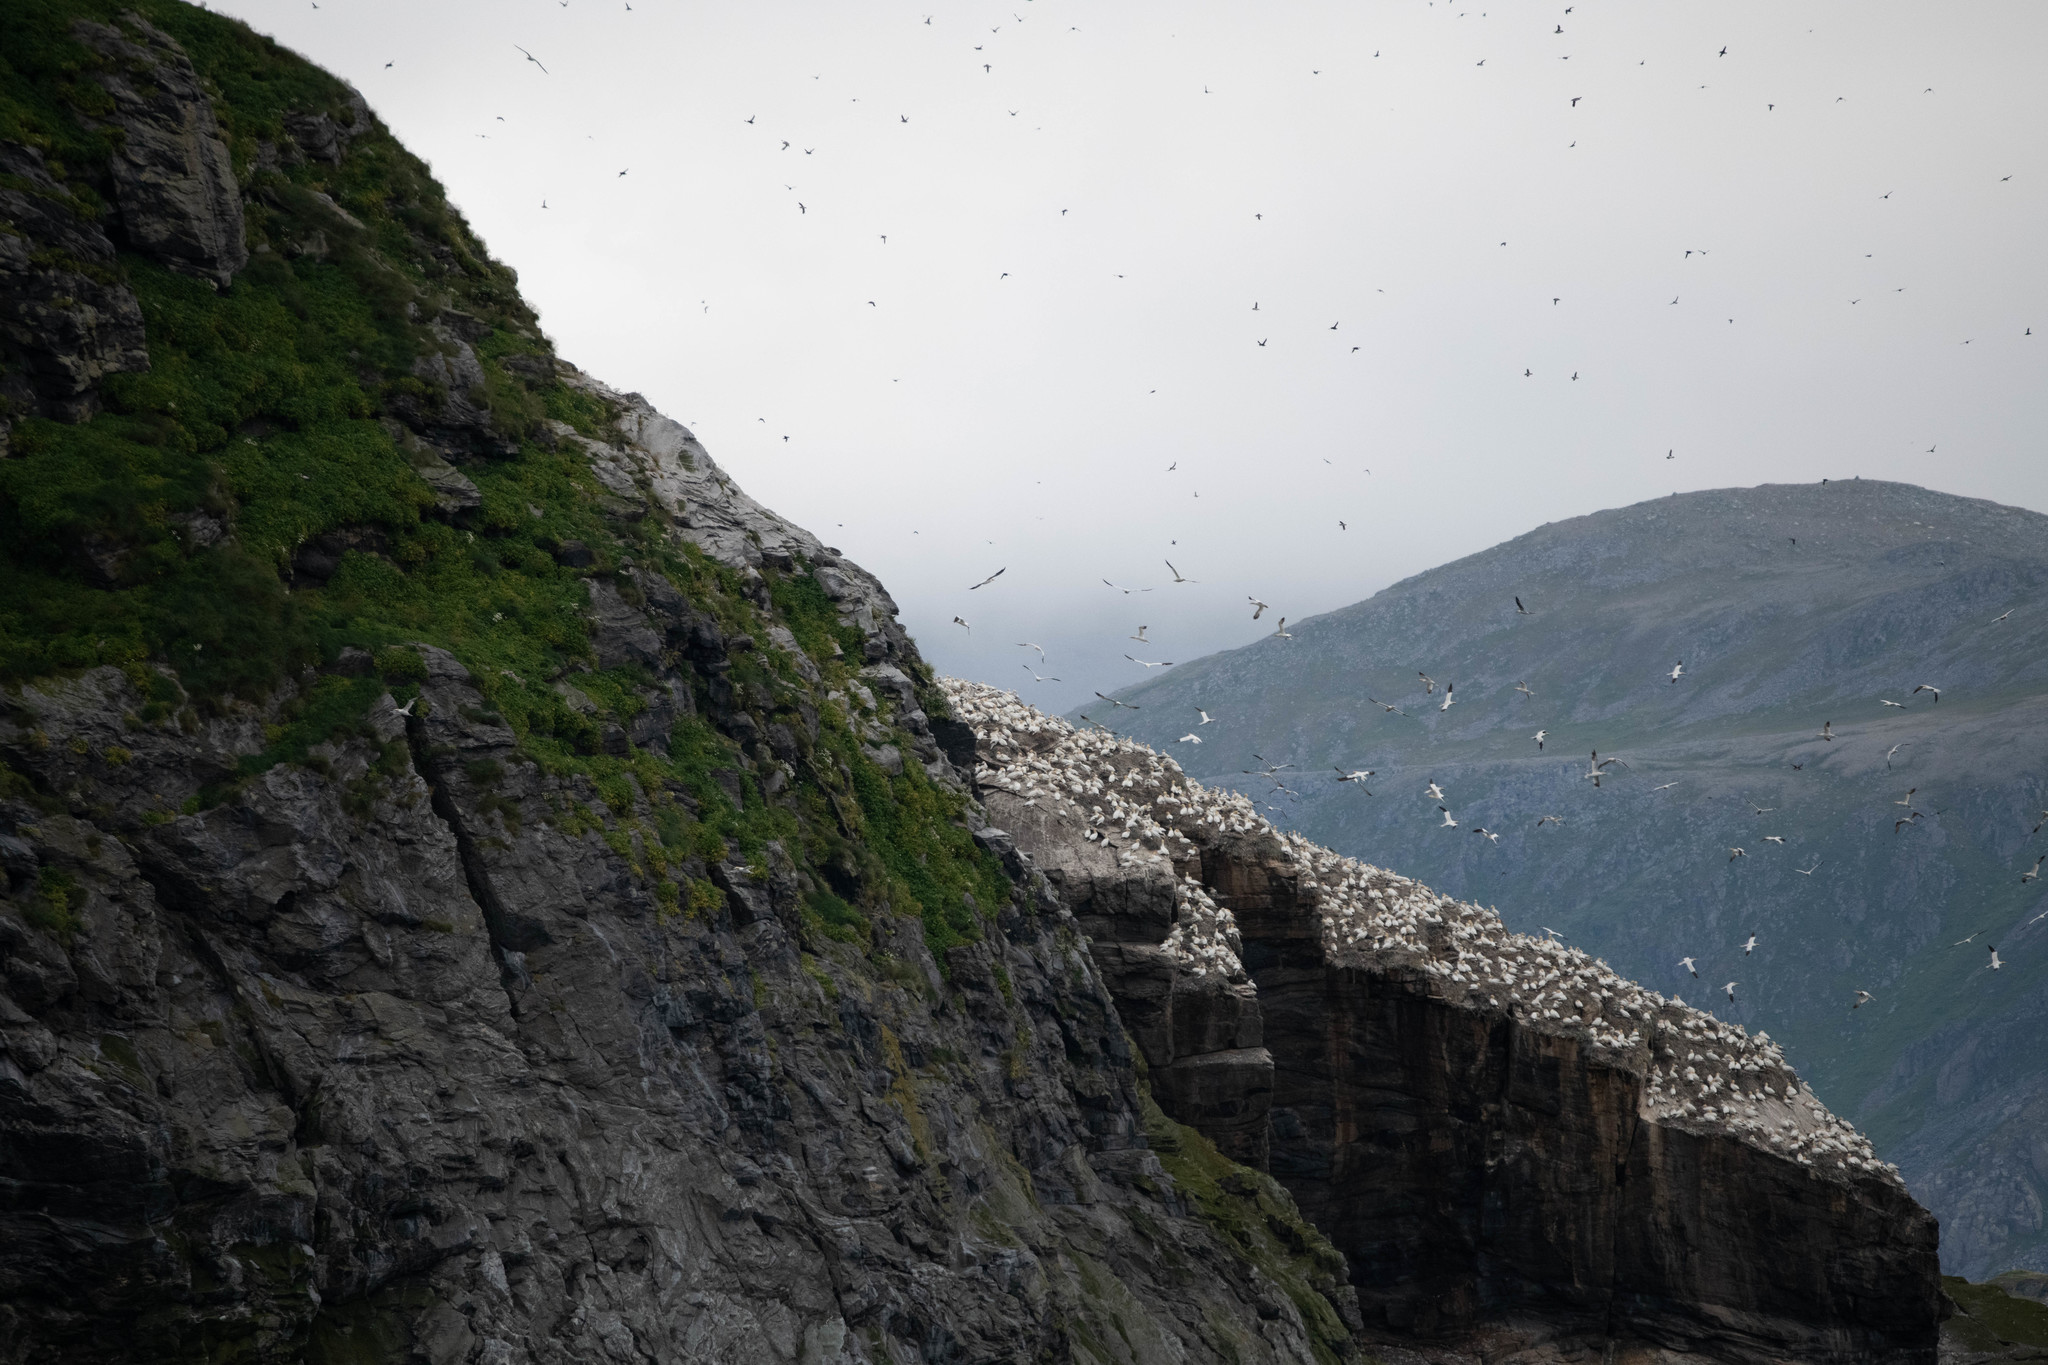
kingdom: Animalia
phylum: Chordata
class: Aves
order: Suliformes
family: Sulidae
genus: Morus
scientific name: Morus bassanus
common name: Northern gannet
